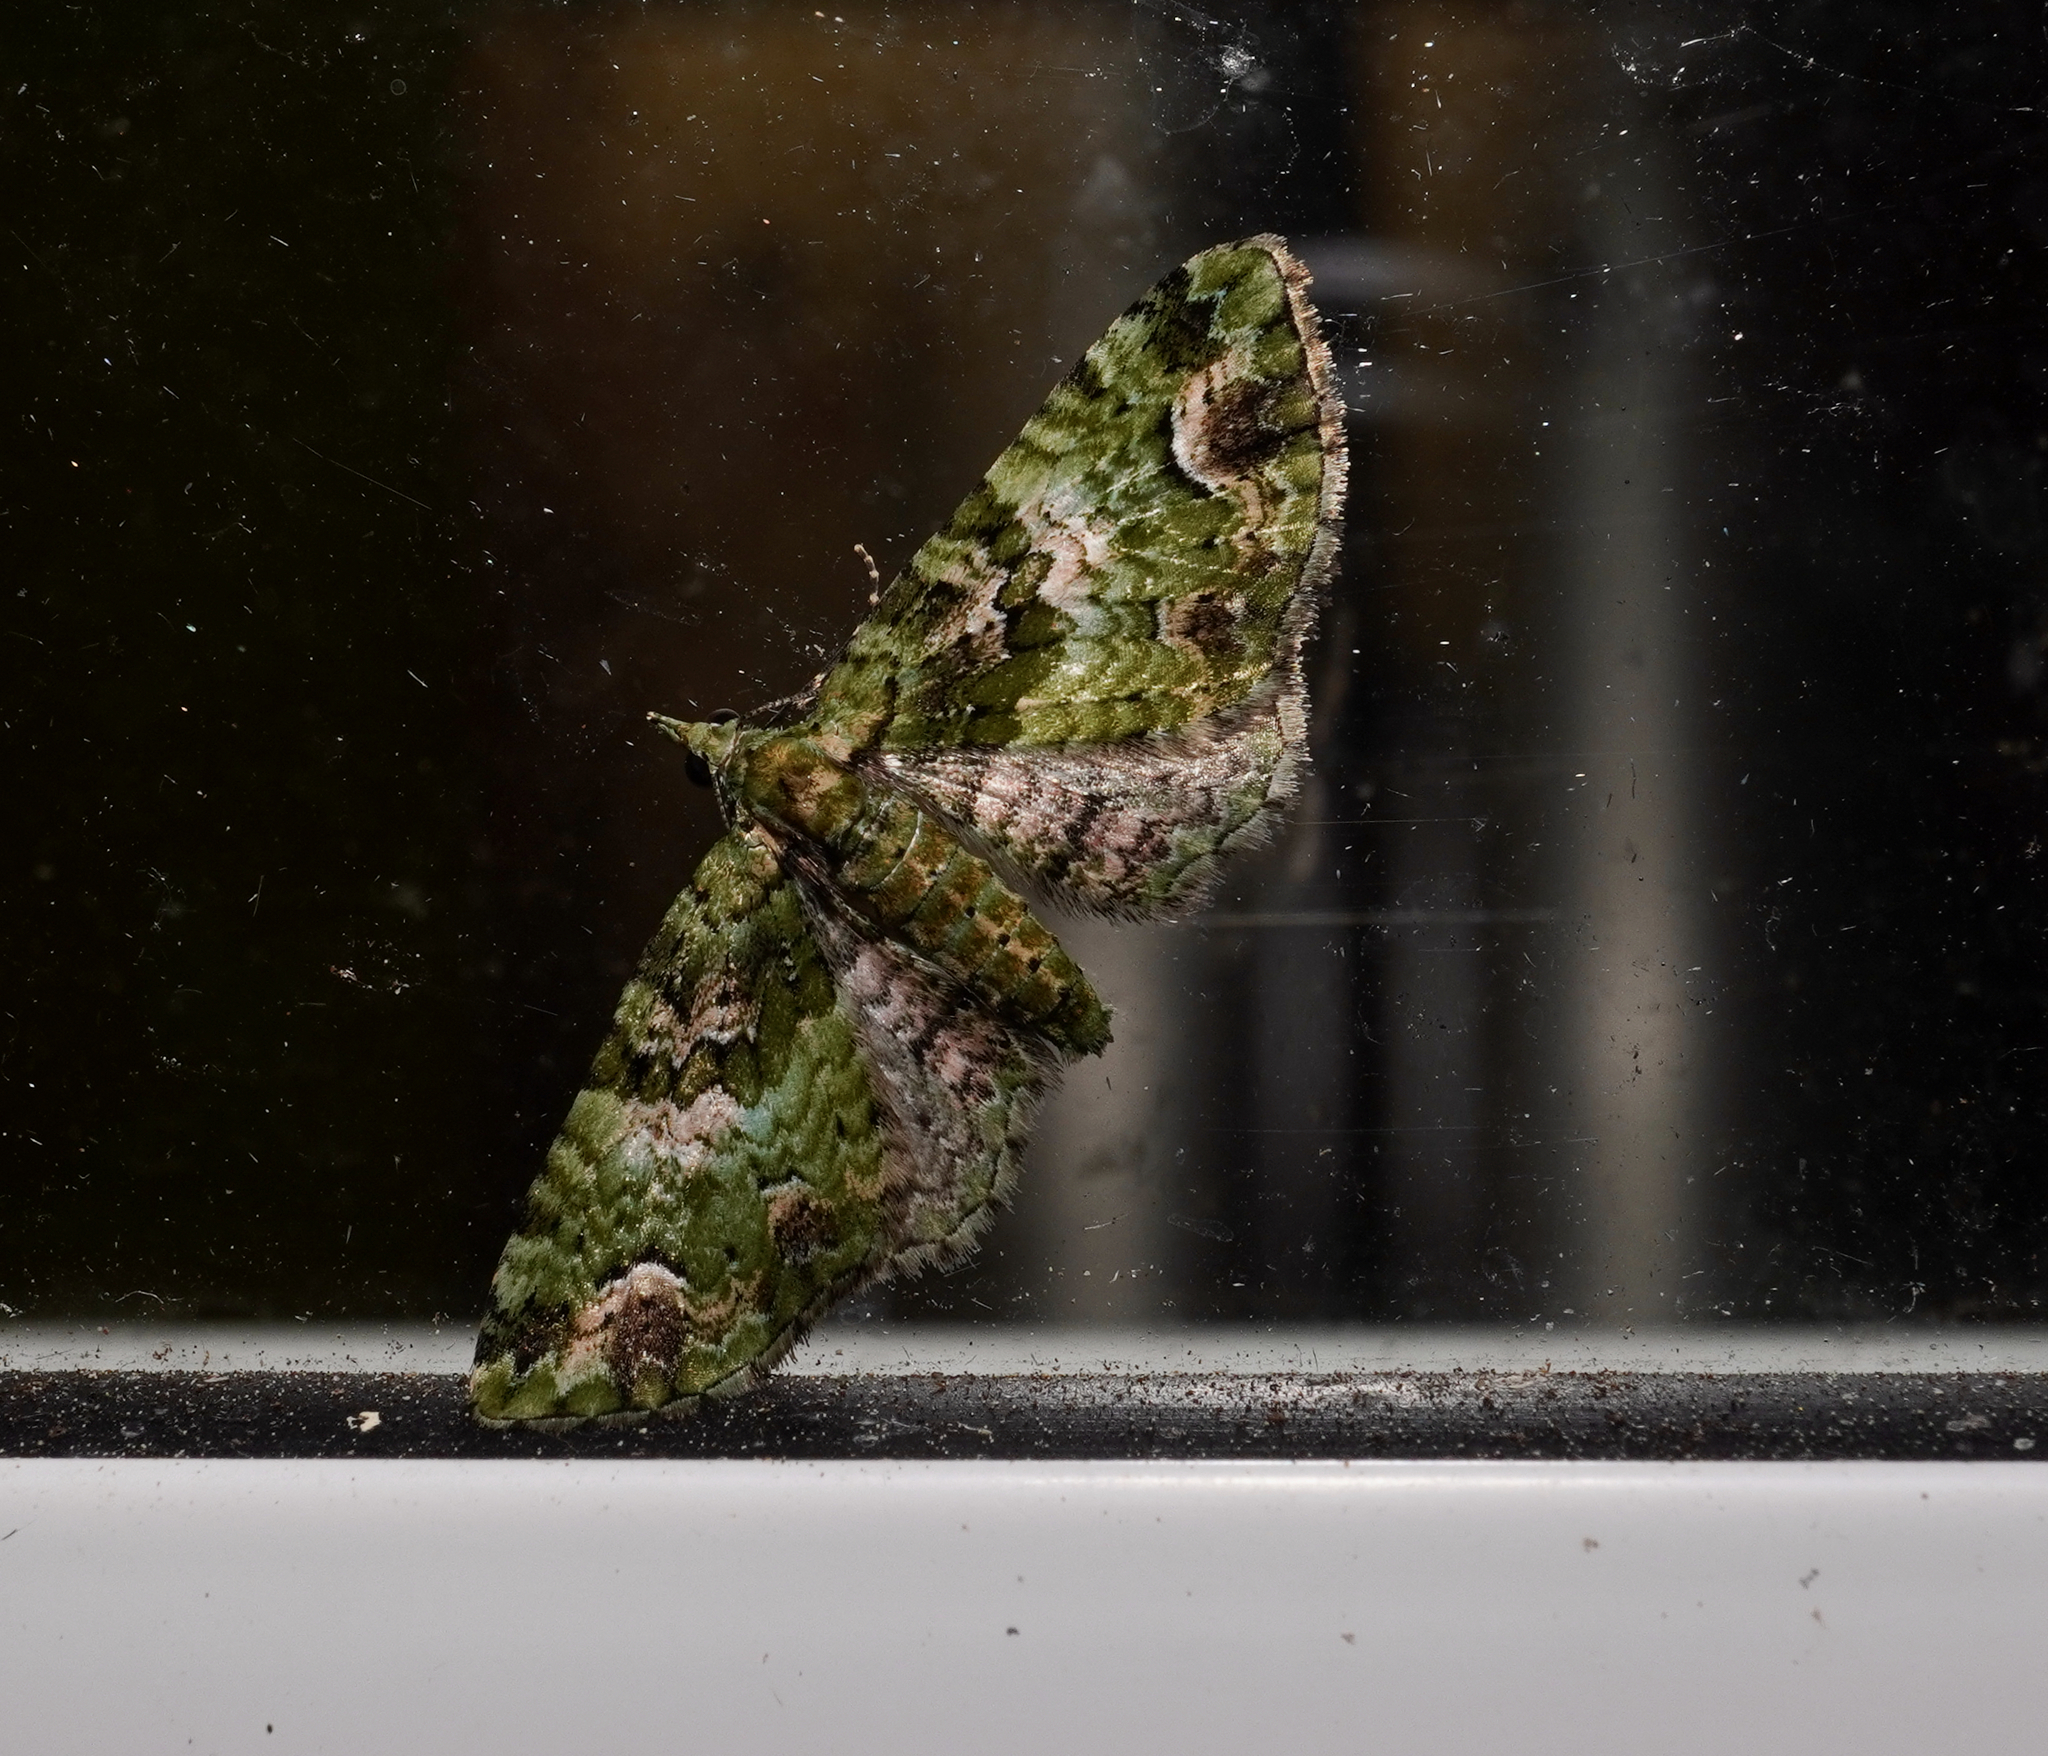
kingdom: Animalia
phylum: Arthropoda
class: Insecta
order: Lepidoptera
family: Geometridae
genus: Pasiphila
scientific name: Pasiphila bilineolata
